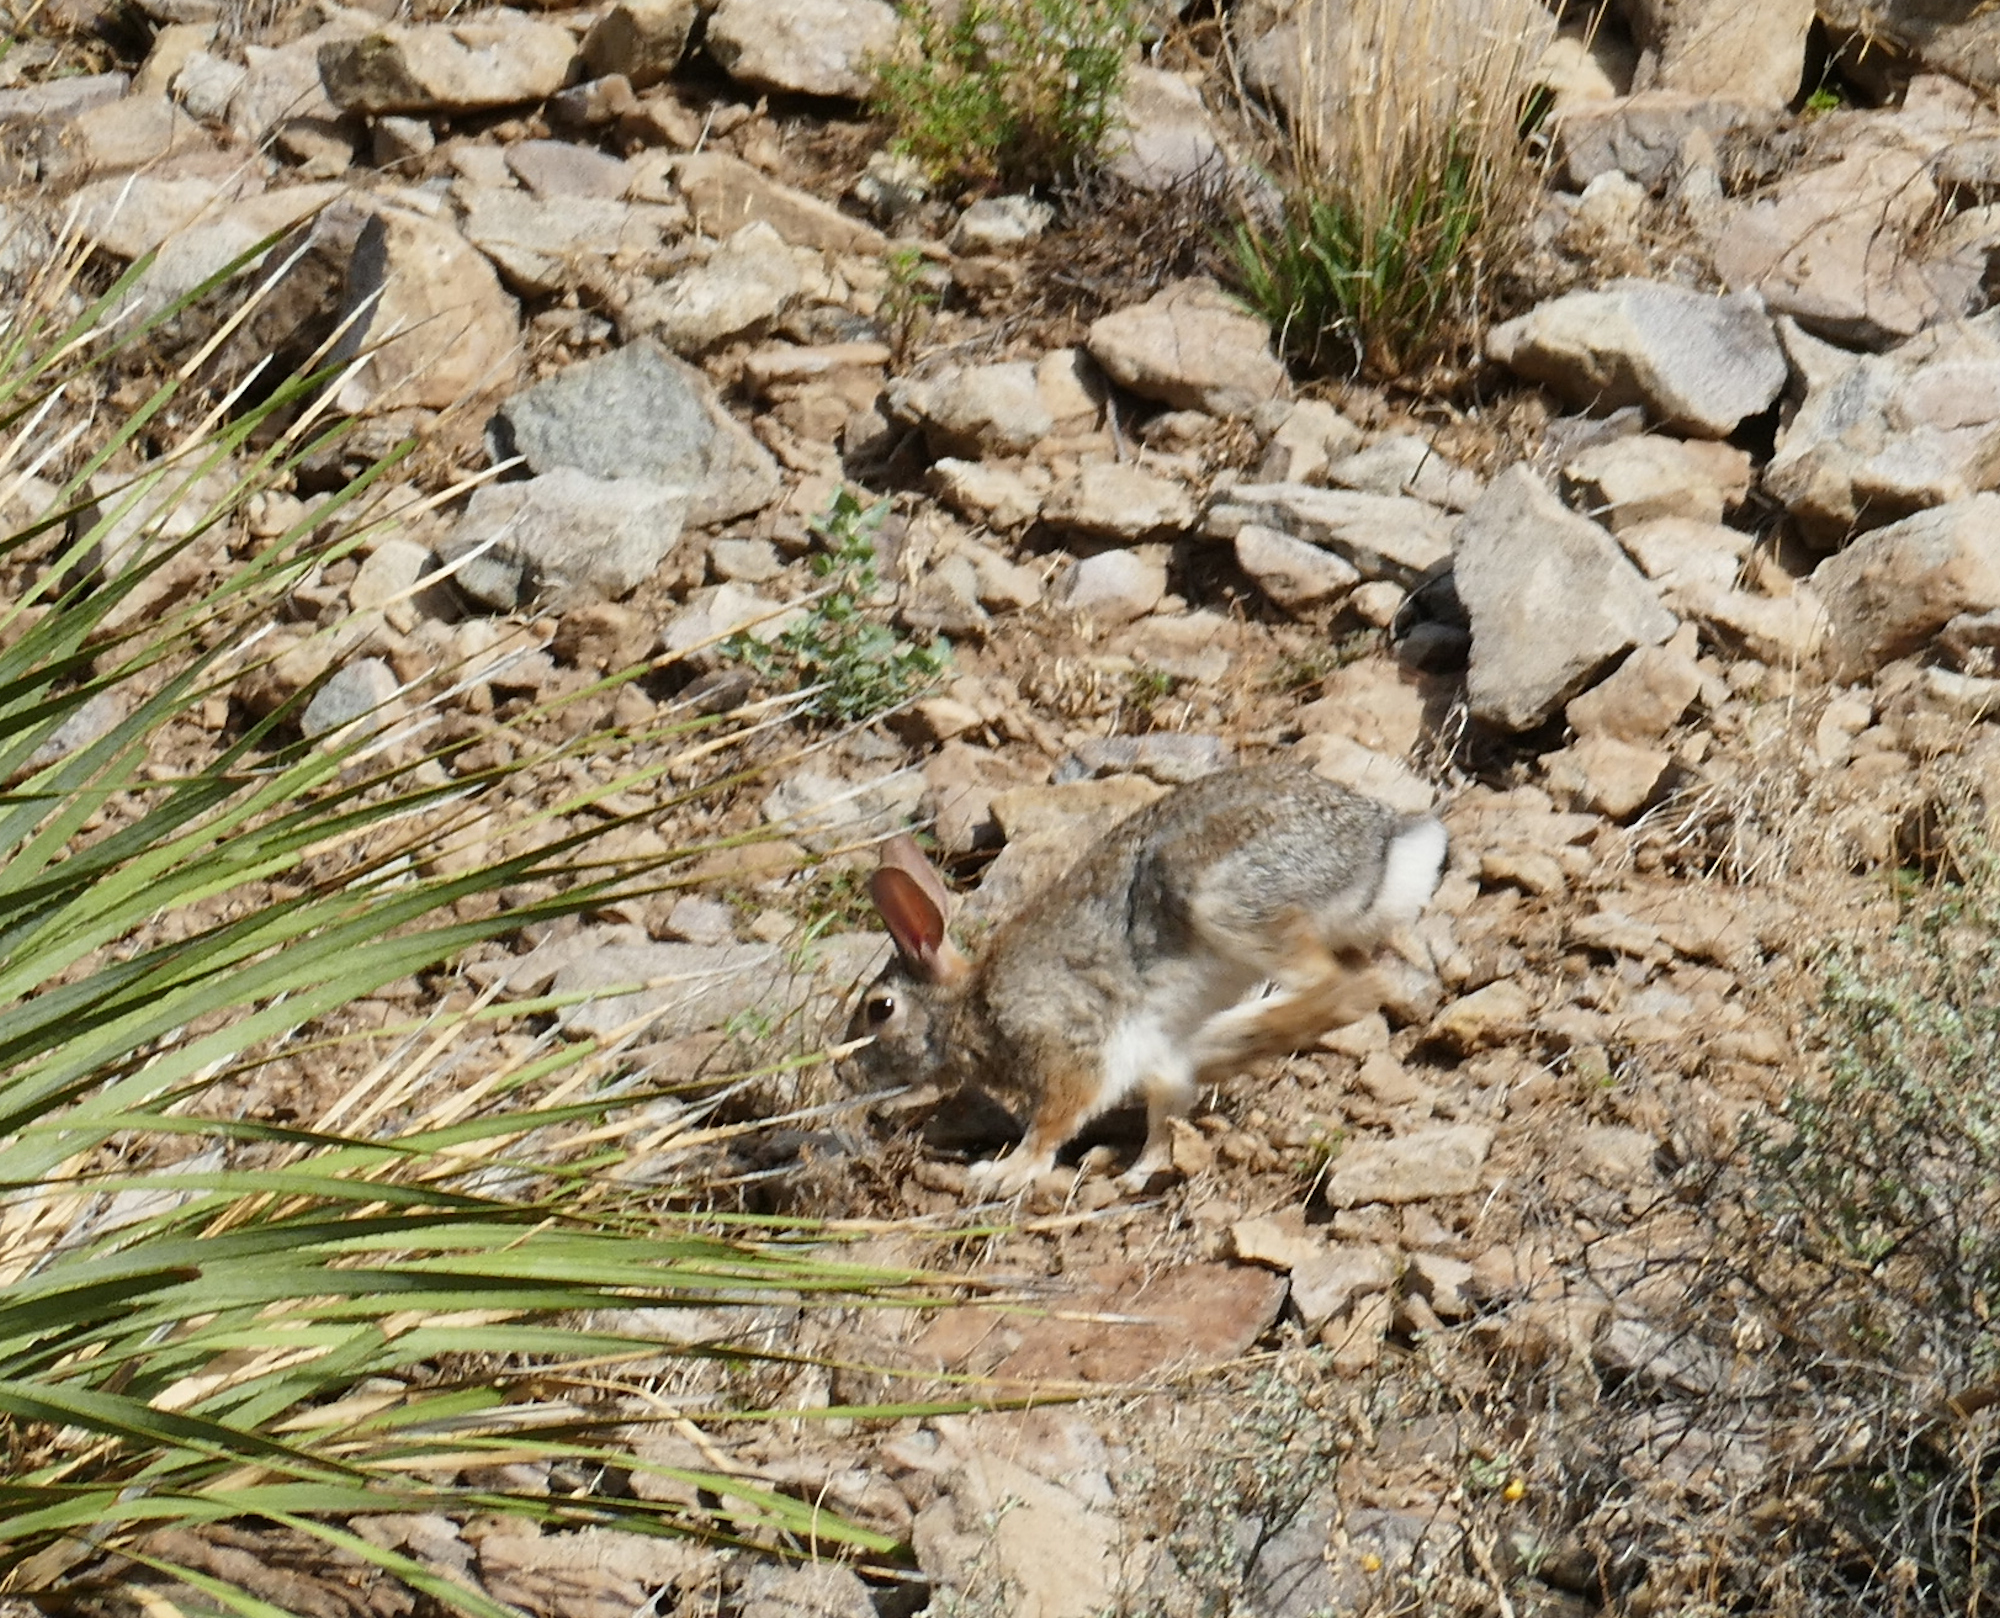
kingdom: Animalia
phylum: Chordata
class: Mammalia
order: Lagomorpha
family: Leporidae
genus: Sylvilagus
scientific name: Sylvilagus audubonii
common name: Desert cottontail
